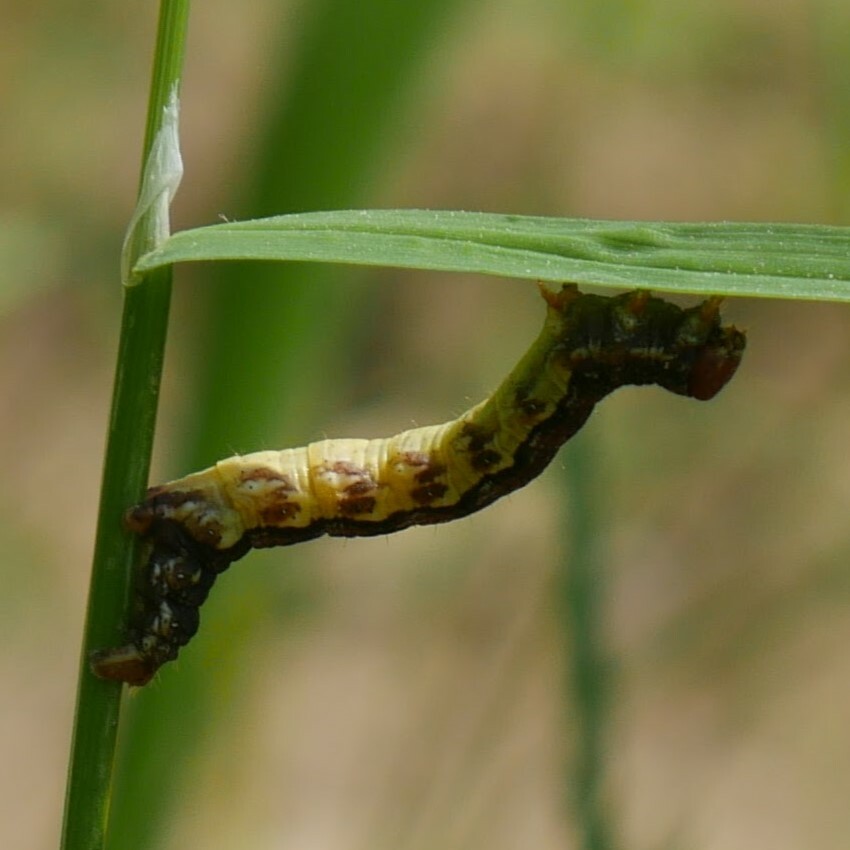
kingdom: Animalia
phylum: Arthropoda
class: Insecta
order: Lepidoptera
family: Geometridae
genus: Erannis
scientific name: Erannis defoliaria
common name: Mottled umber
